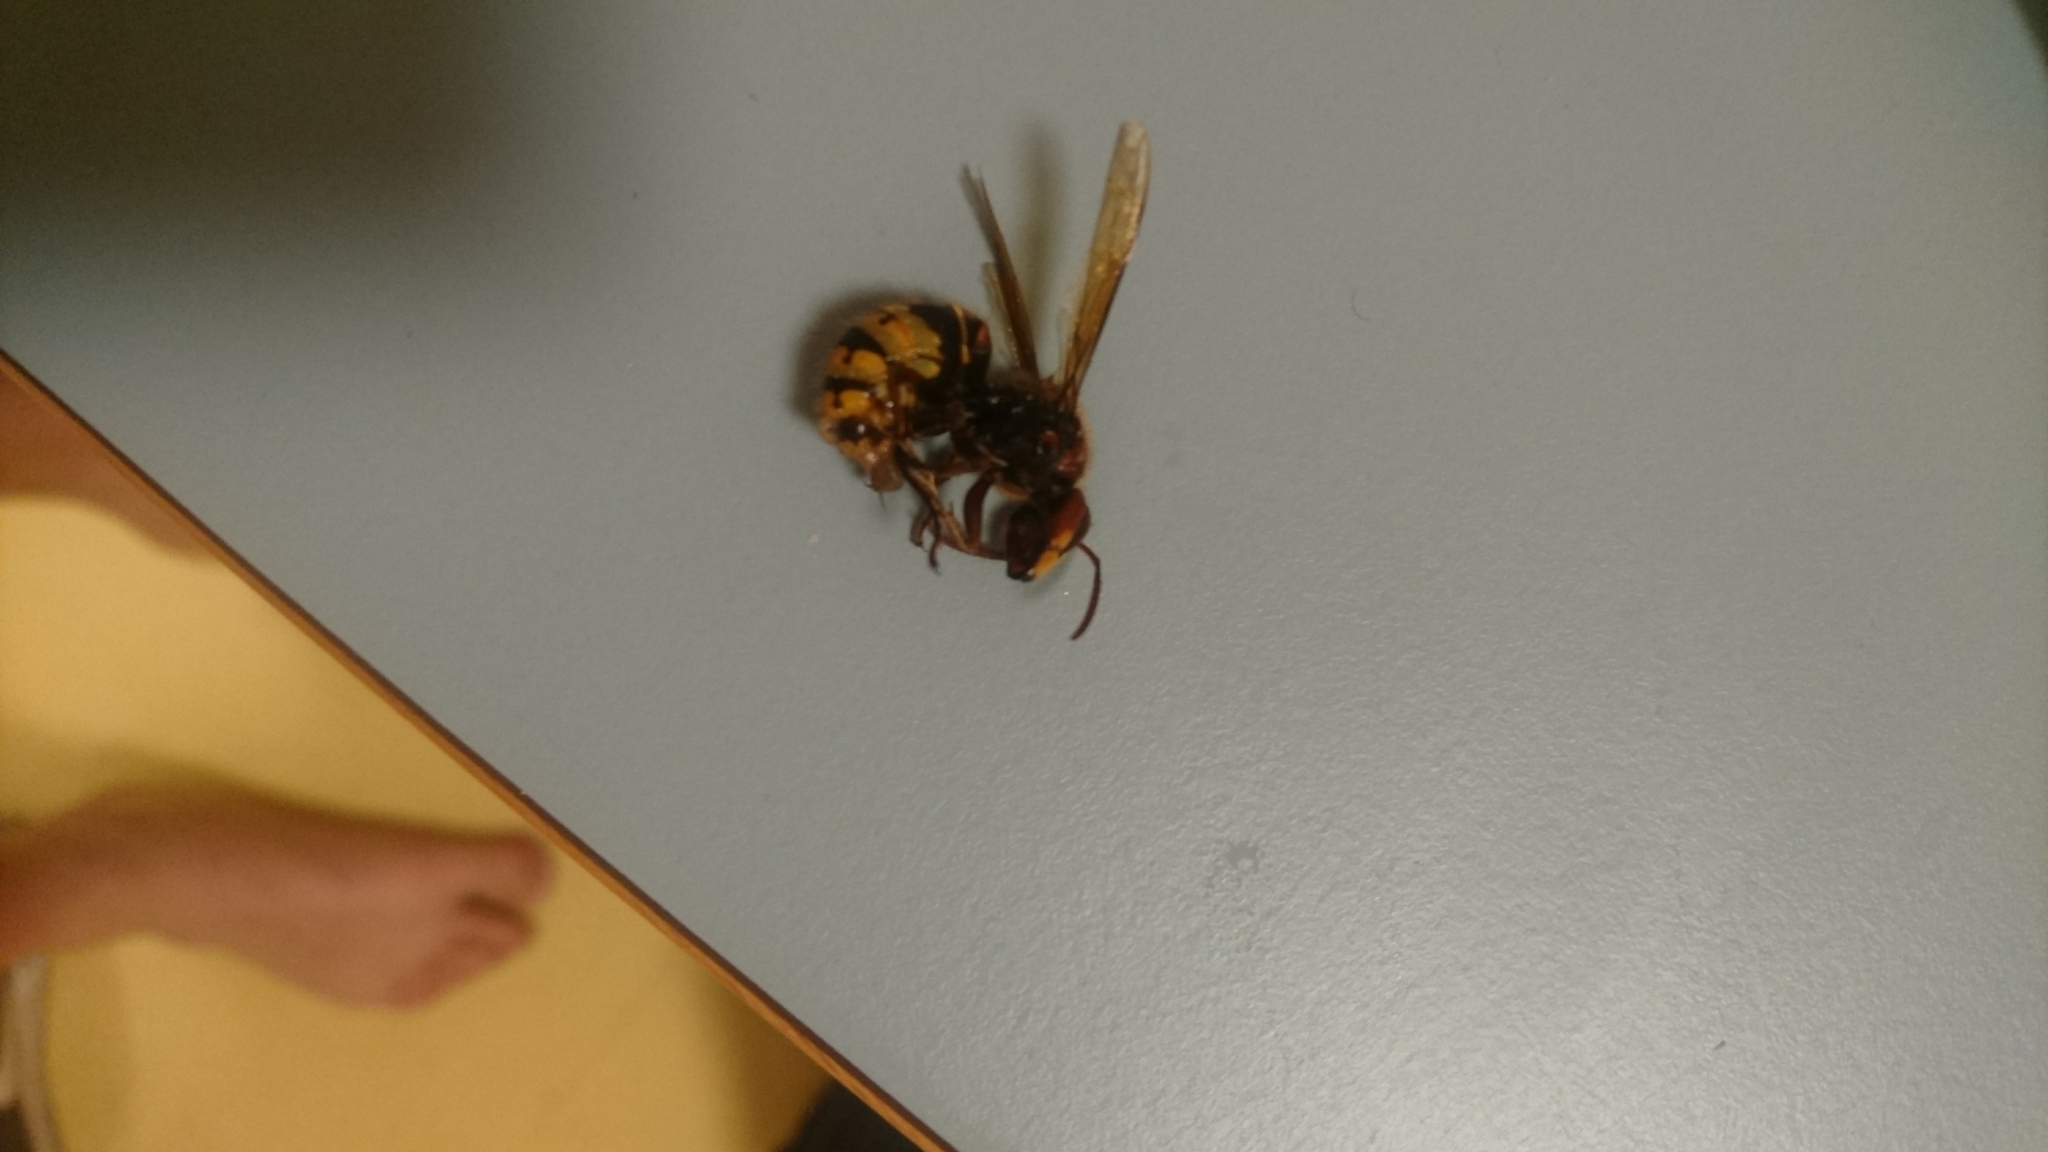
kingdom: Animalia
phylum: Arthropoda
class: Insecta
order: Hymenoptera
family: Vespidae
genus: Vespa
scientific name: Vespa crabro
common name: Hornet
